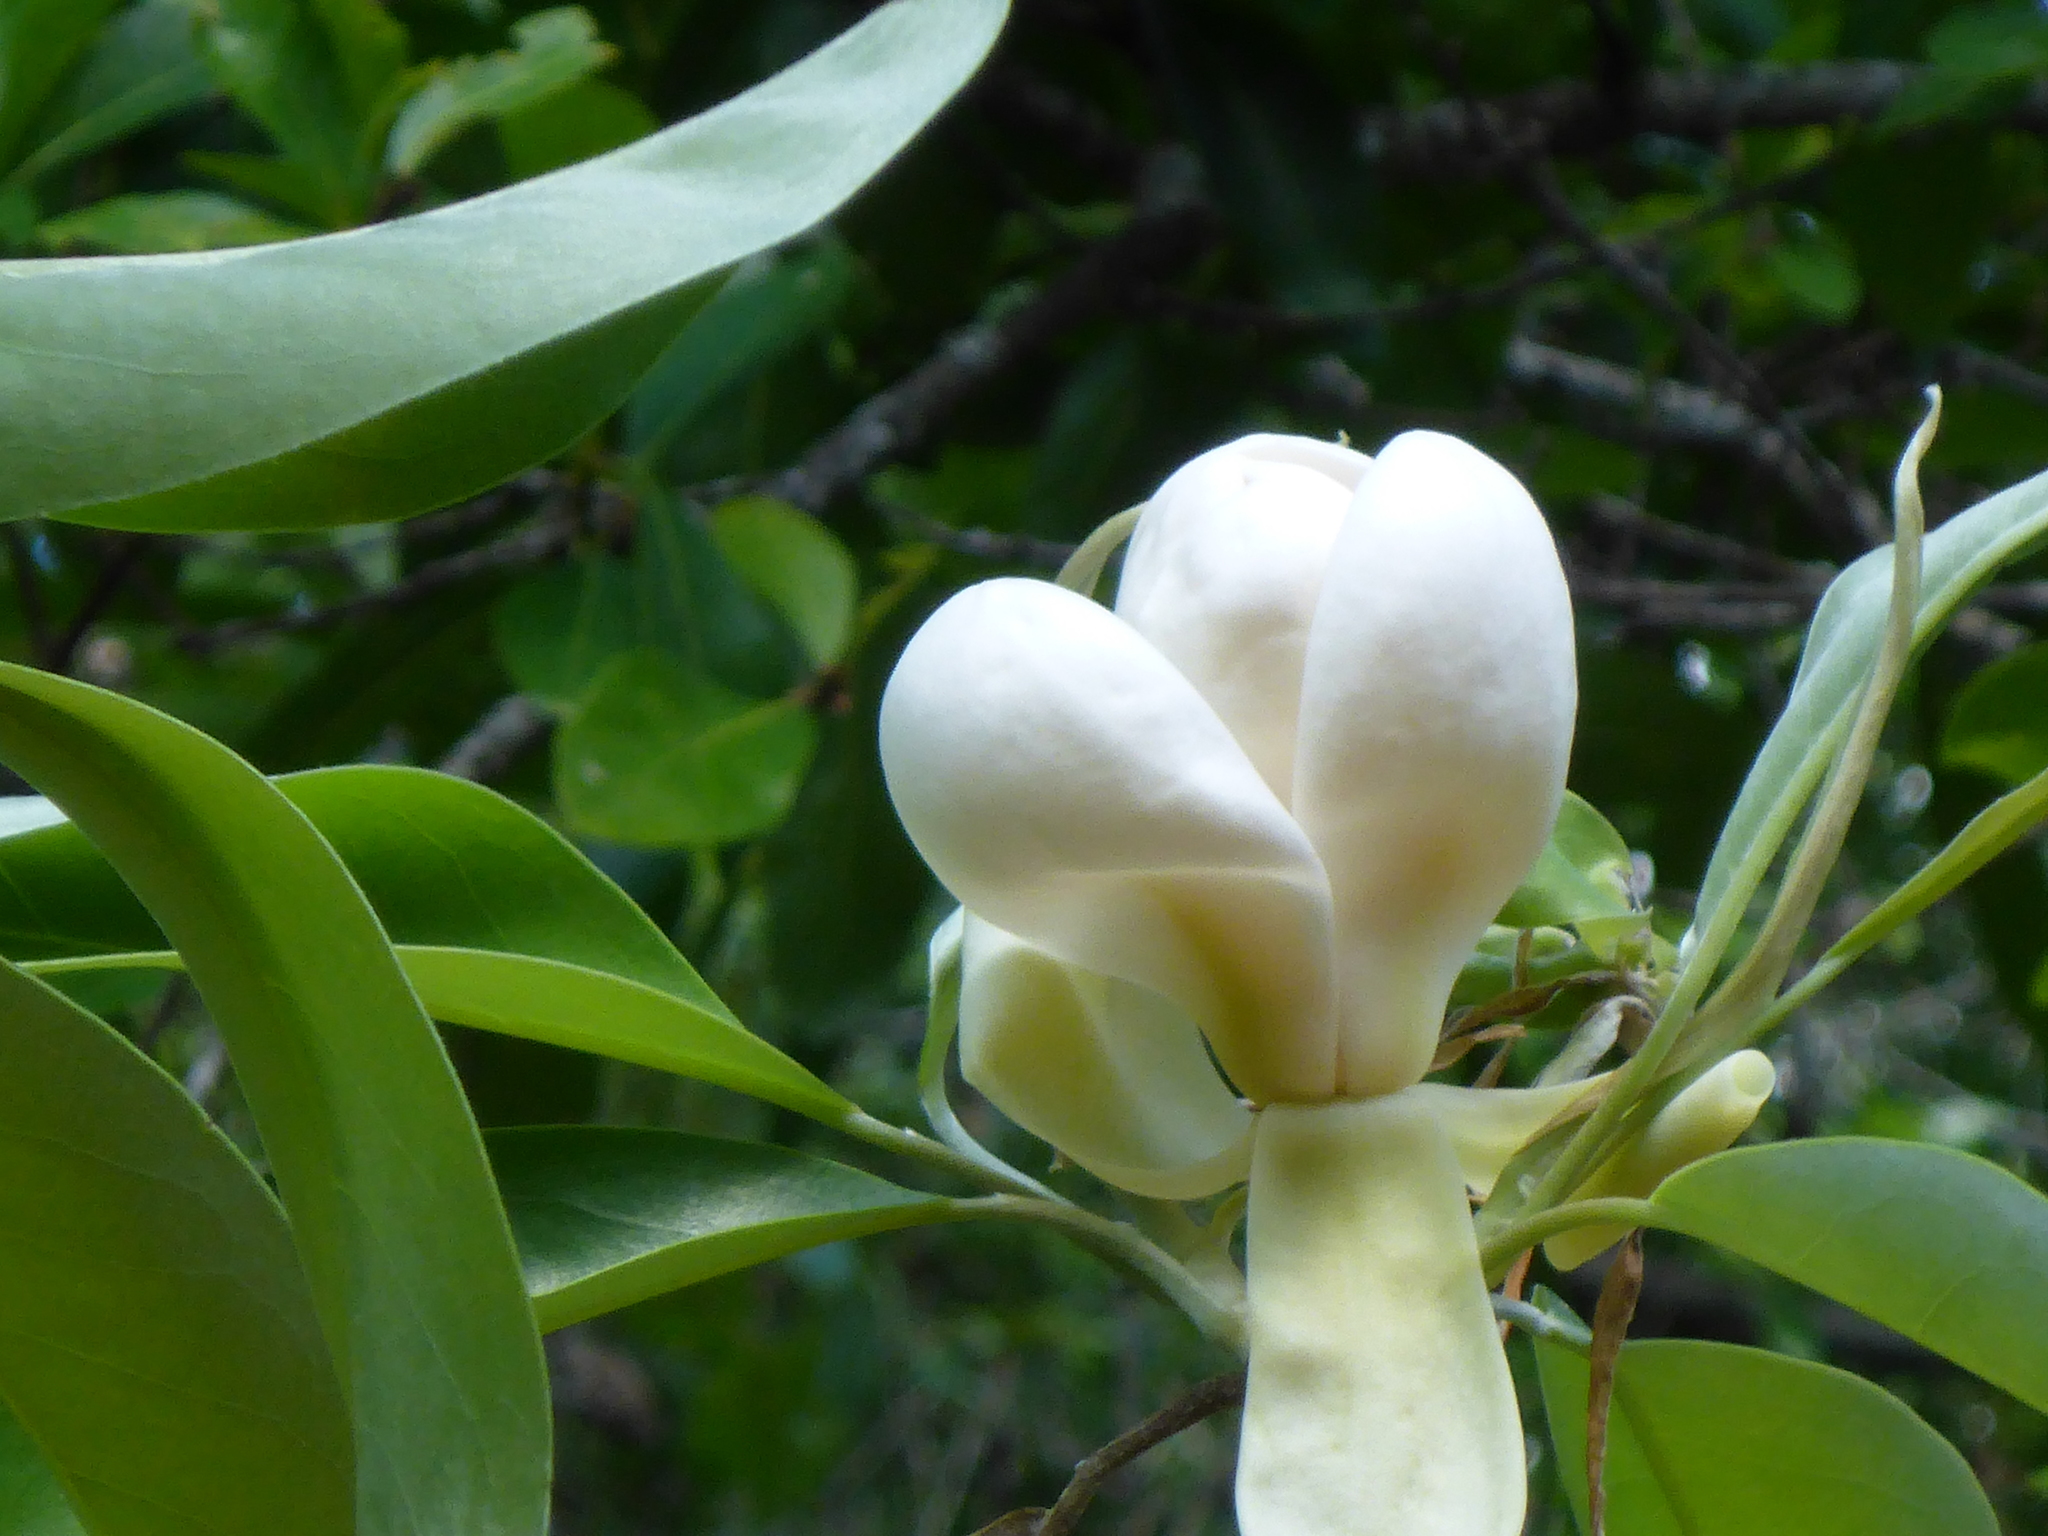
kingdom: Plantae
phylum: Tracheophyta
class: Magnoliopsida
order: Magnoliales
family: Magnoliaceae
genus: Magnolia
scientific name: Magnolia virginiana
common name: Swamp bay
